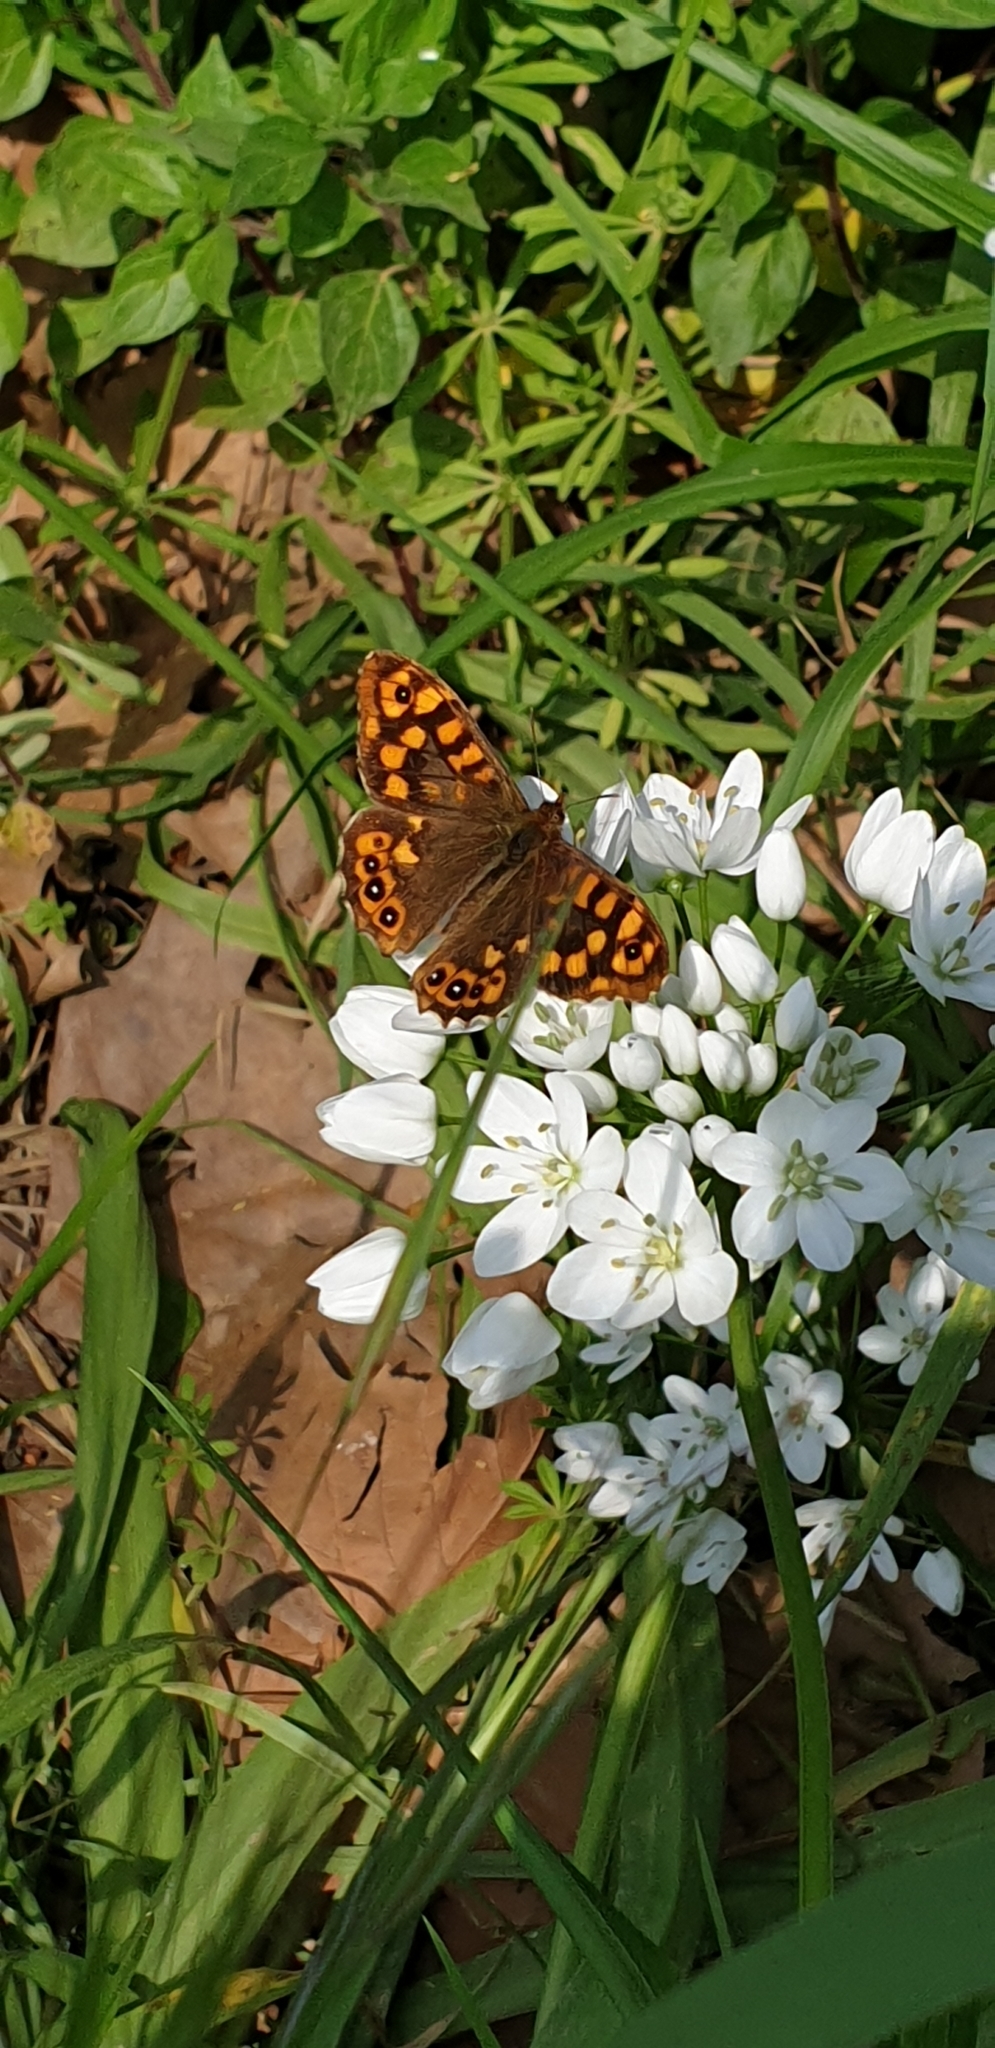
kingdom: Animalia
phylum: Arthropoda
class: Insecta
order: Lepidoptera
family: Nymphalidae
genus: Pararge
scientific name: Pararge aegeria
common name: Speckled wood
